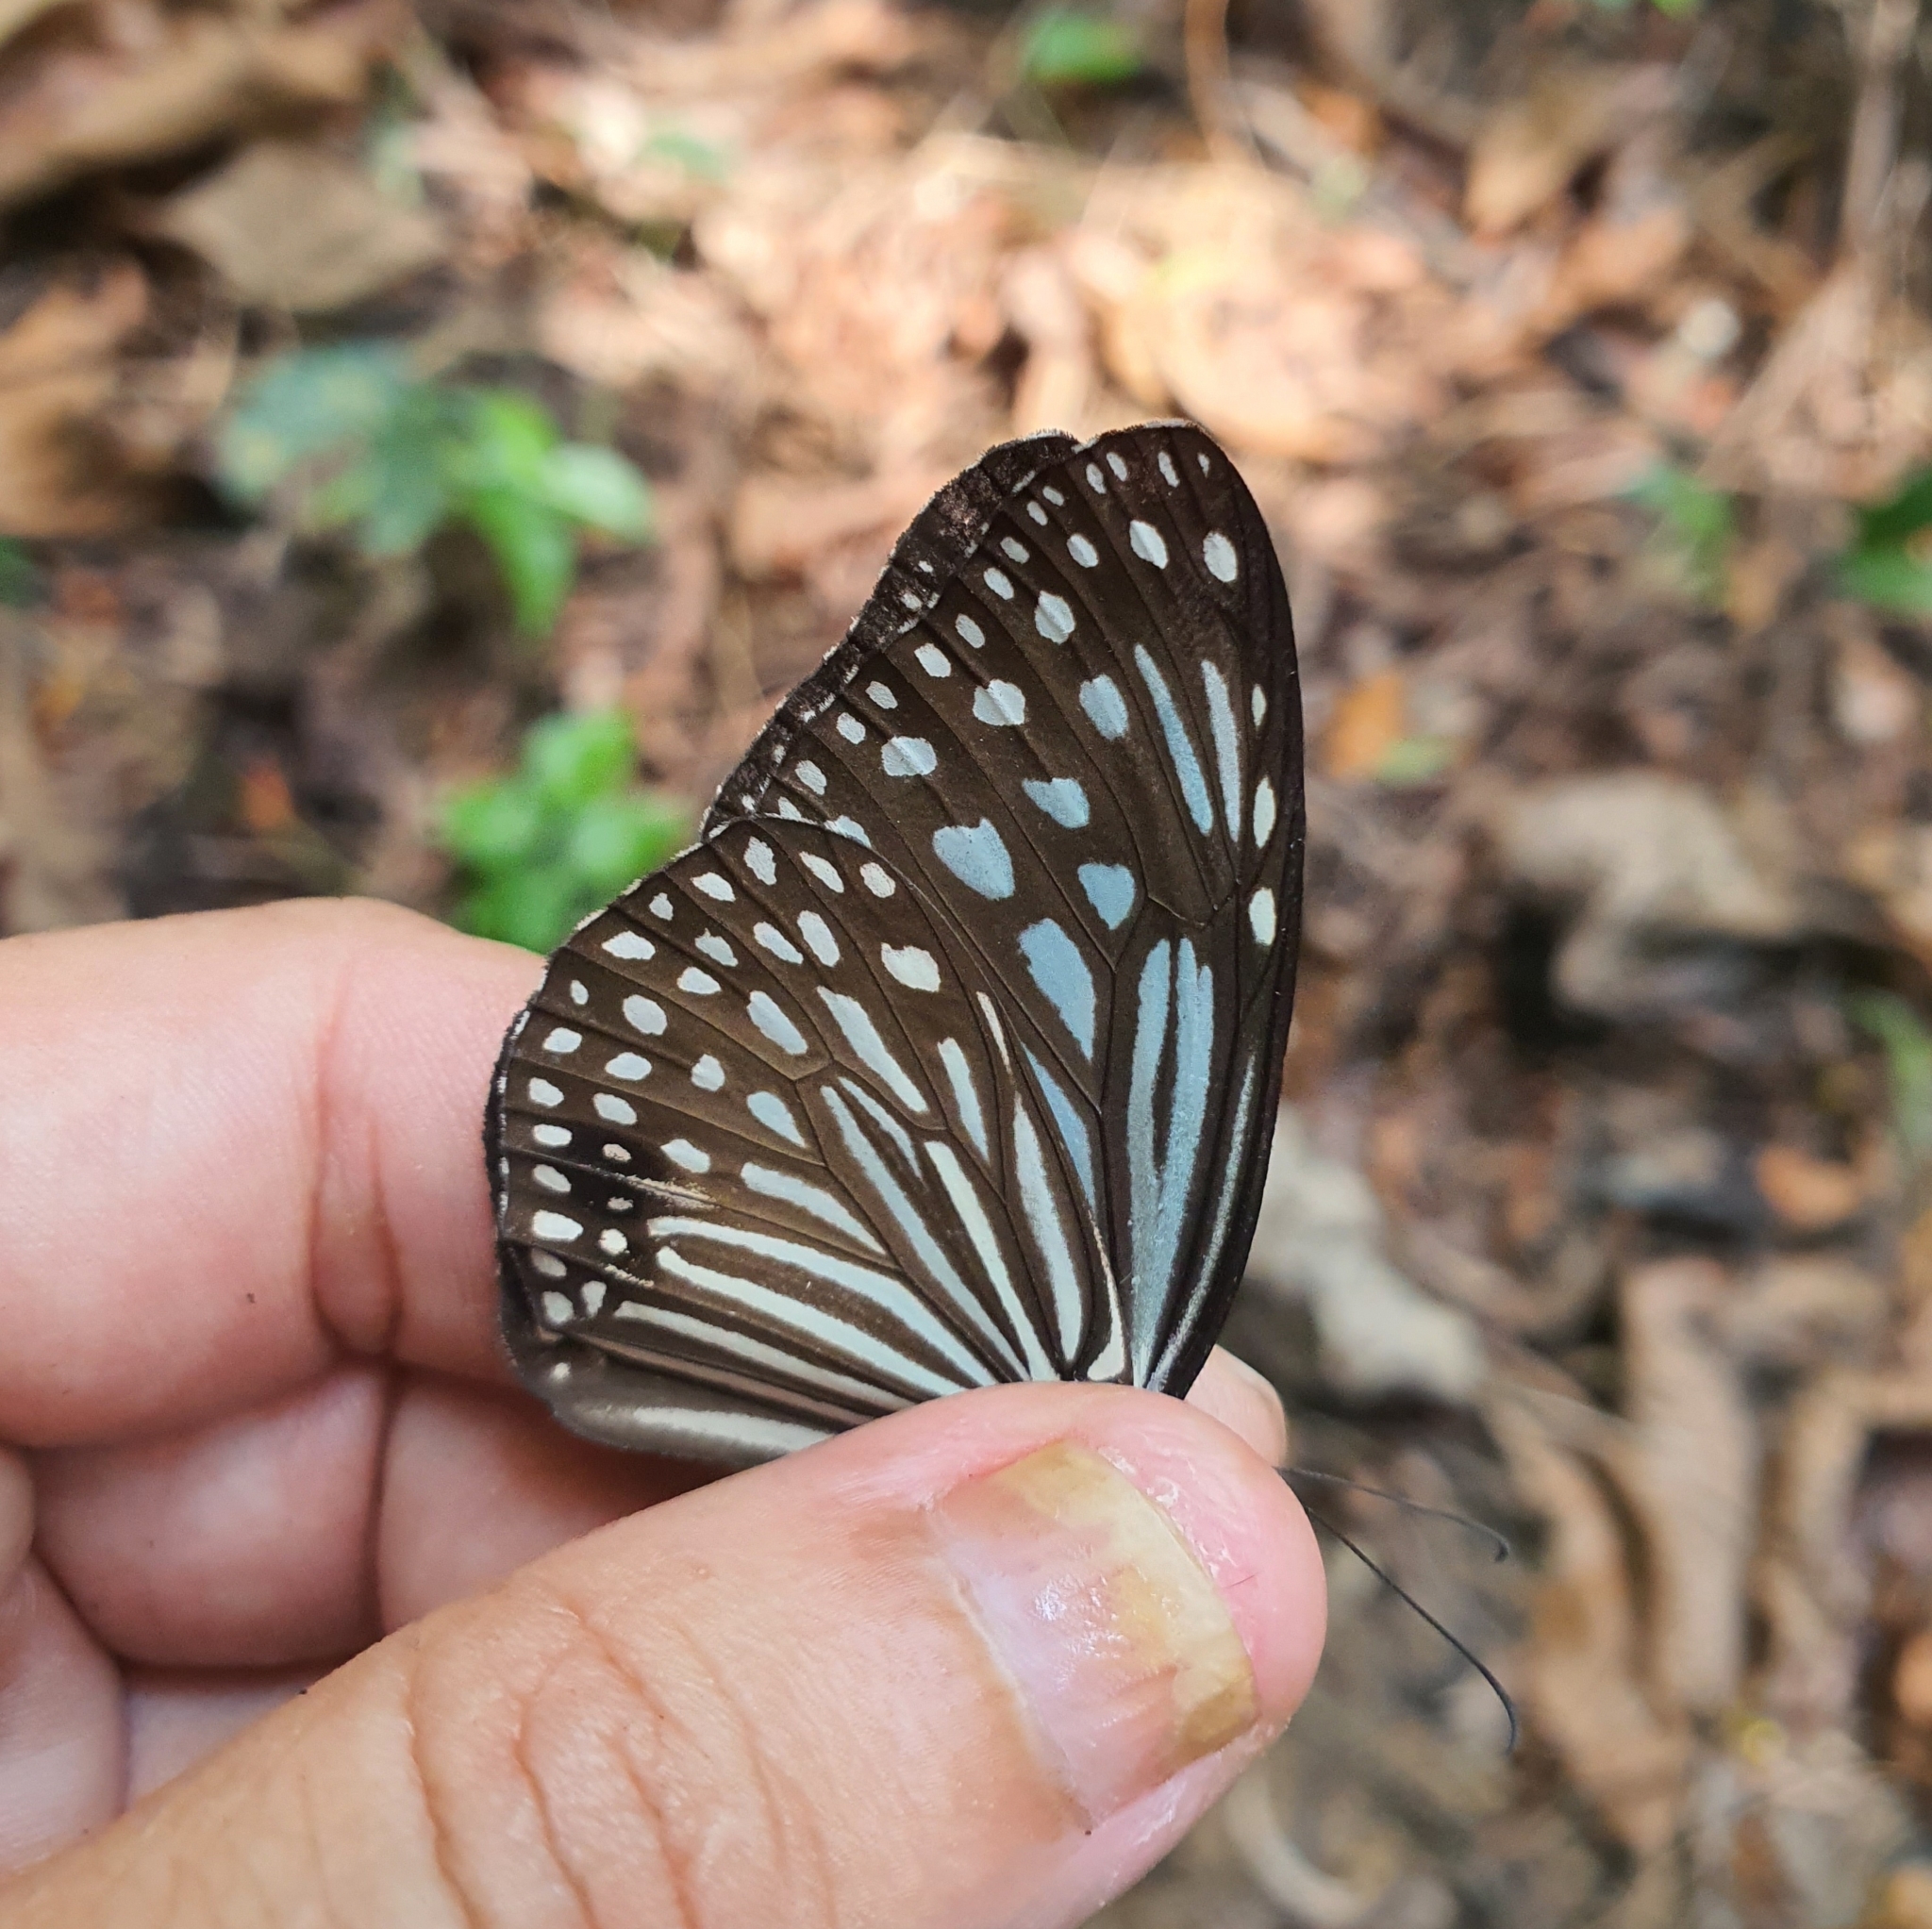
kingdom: Animalia
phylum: Arthropoda
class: Insecta
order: Lepidoptera
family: Nymphalidae
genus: Parantica
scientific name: Parantica agleoides
